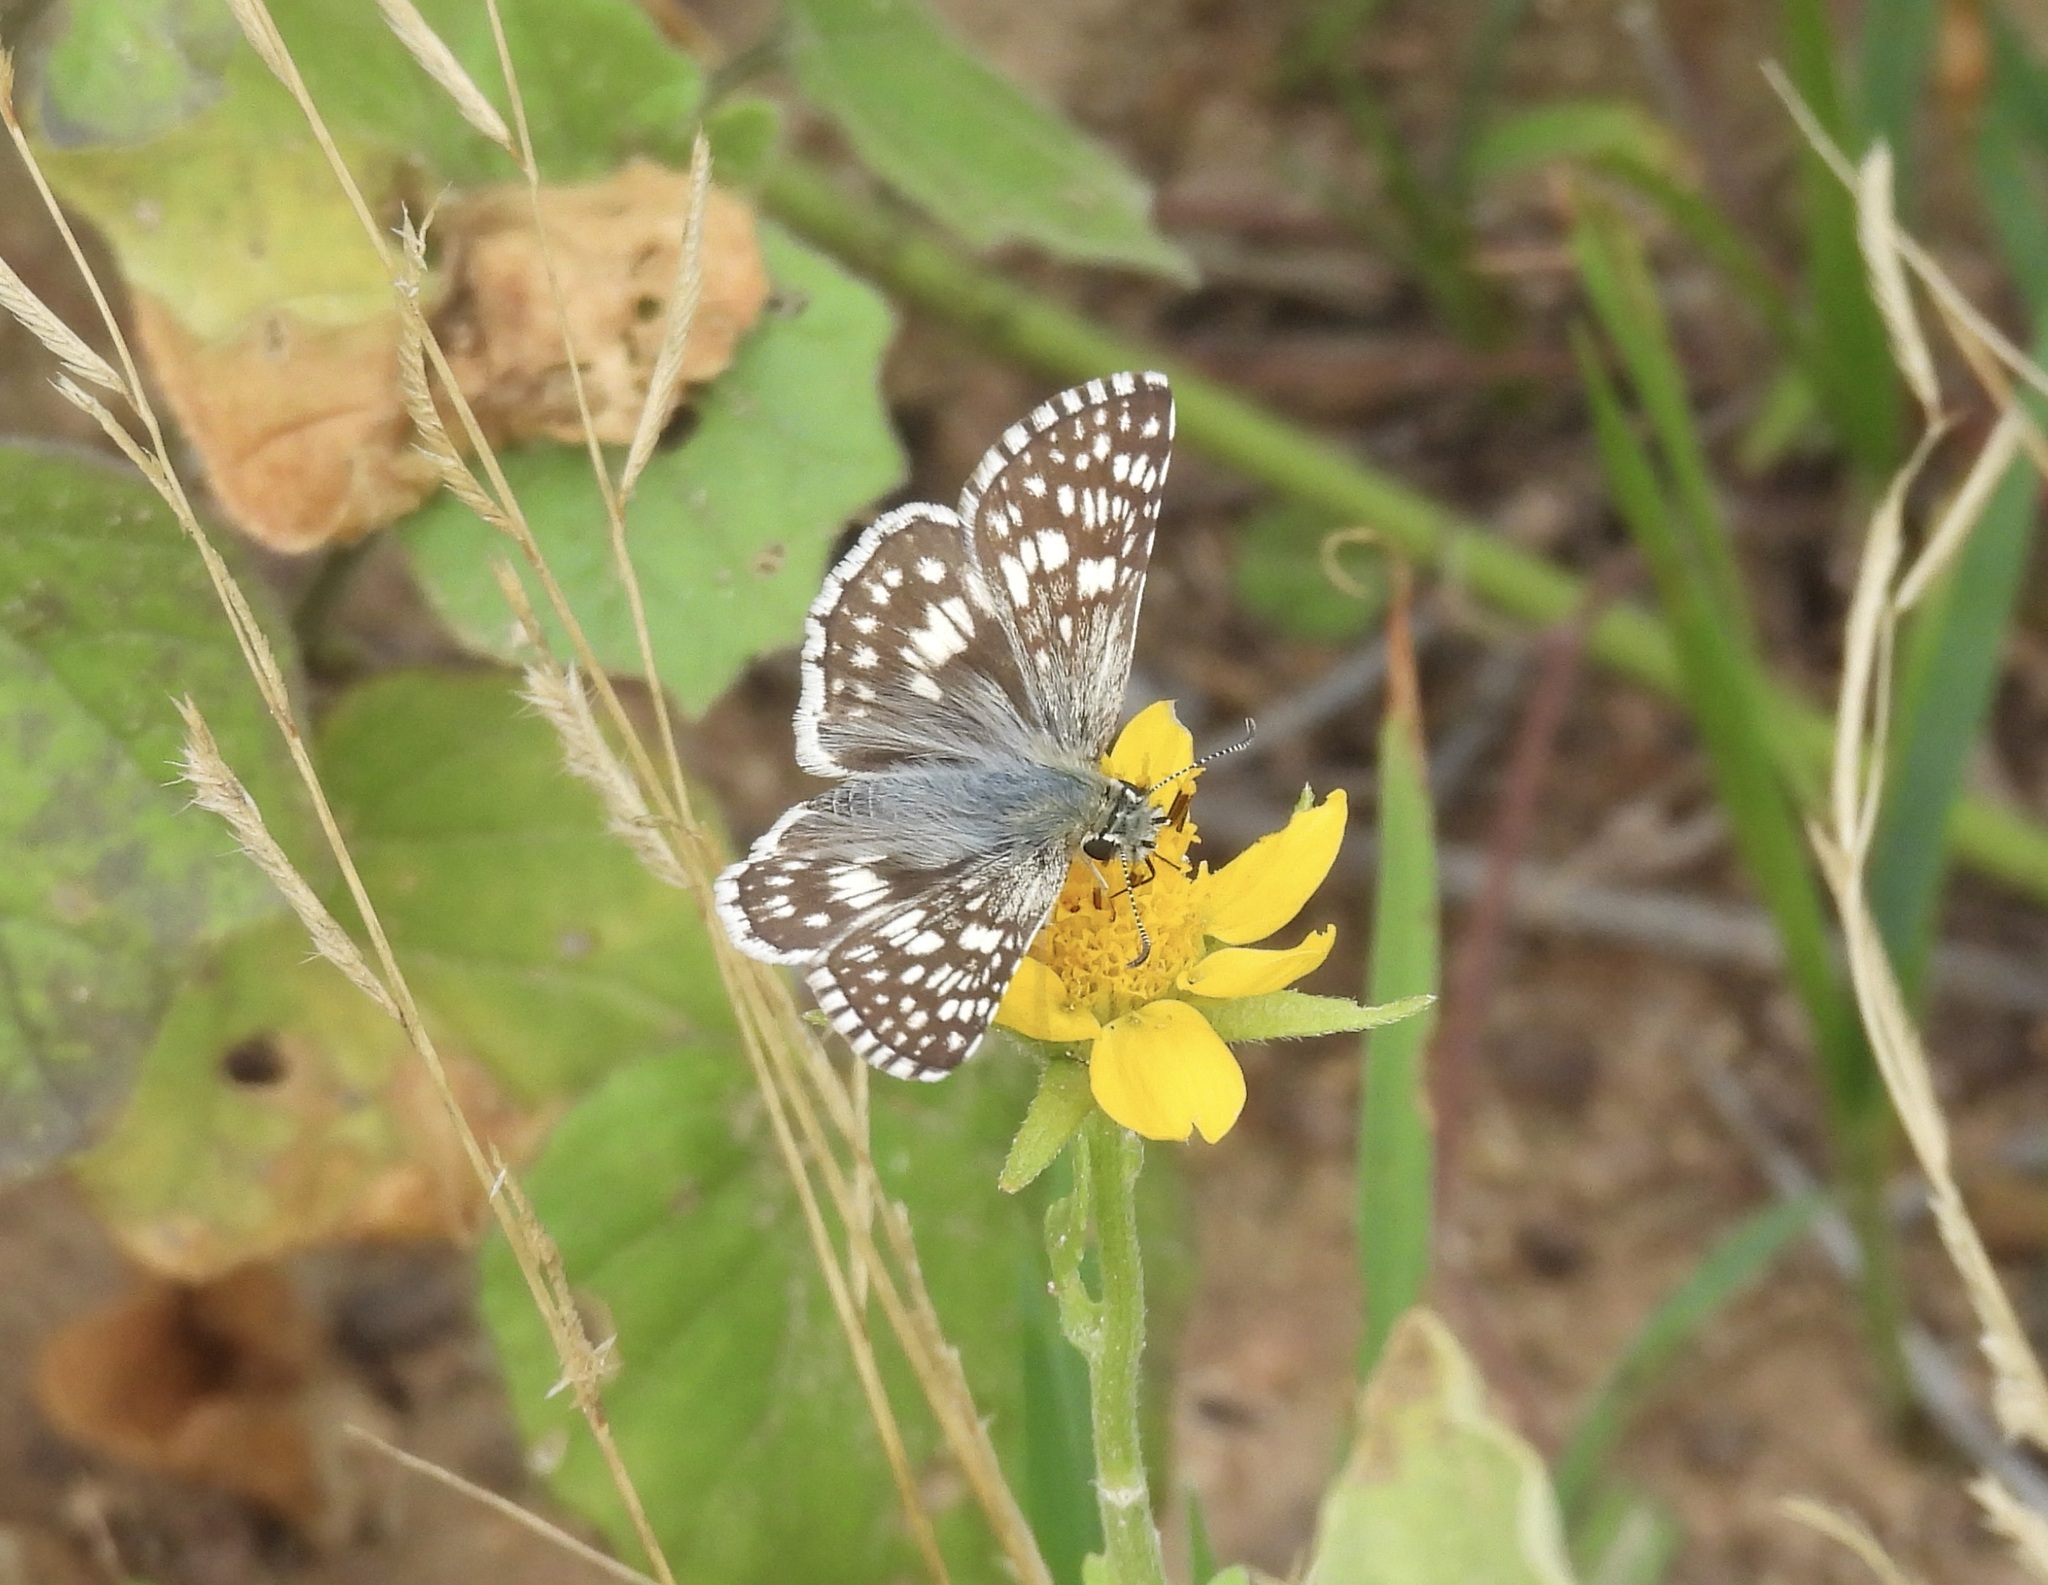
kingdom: Animalia
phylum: Arthropoda
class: Insecta
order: Lepidoptera
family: Hesperiidae
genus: Burnsius
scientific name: Burnsius
